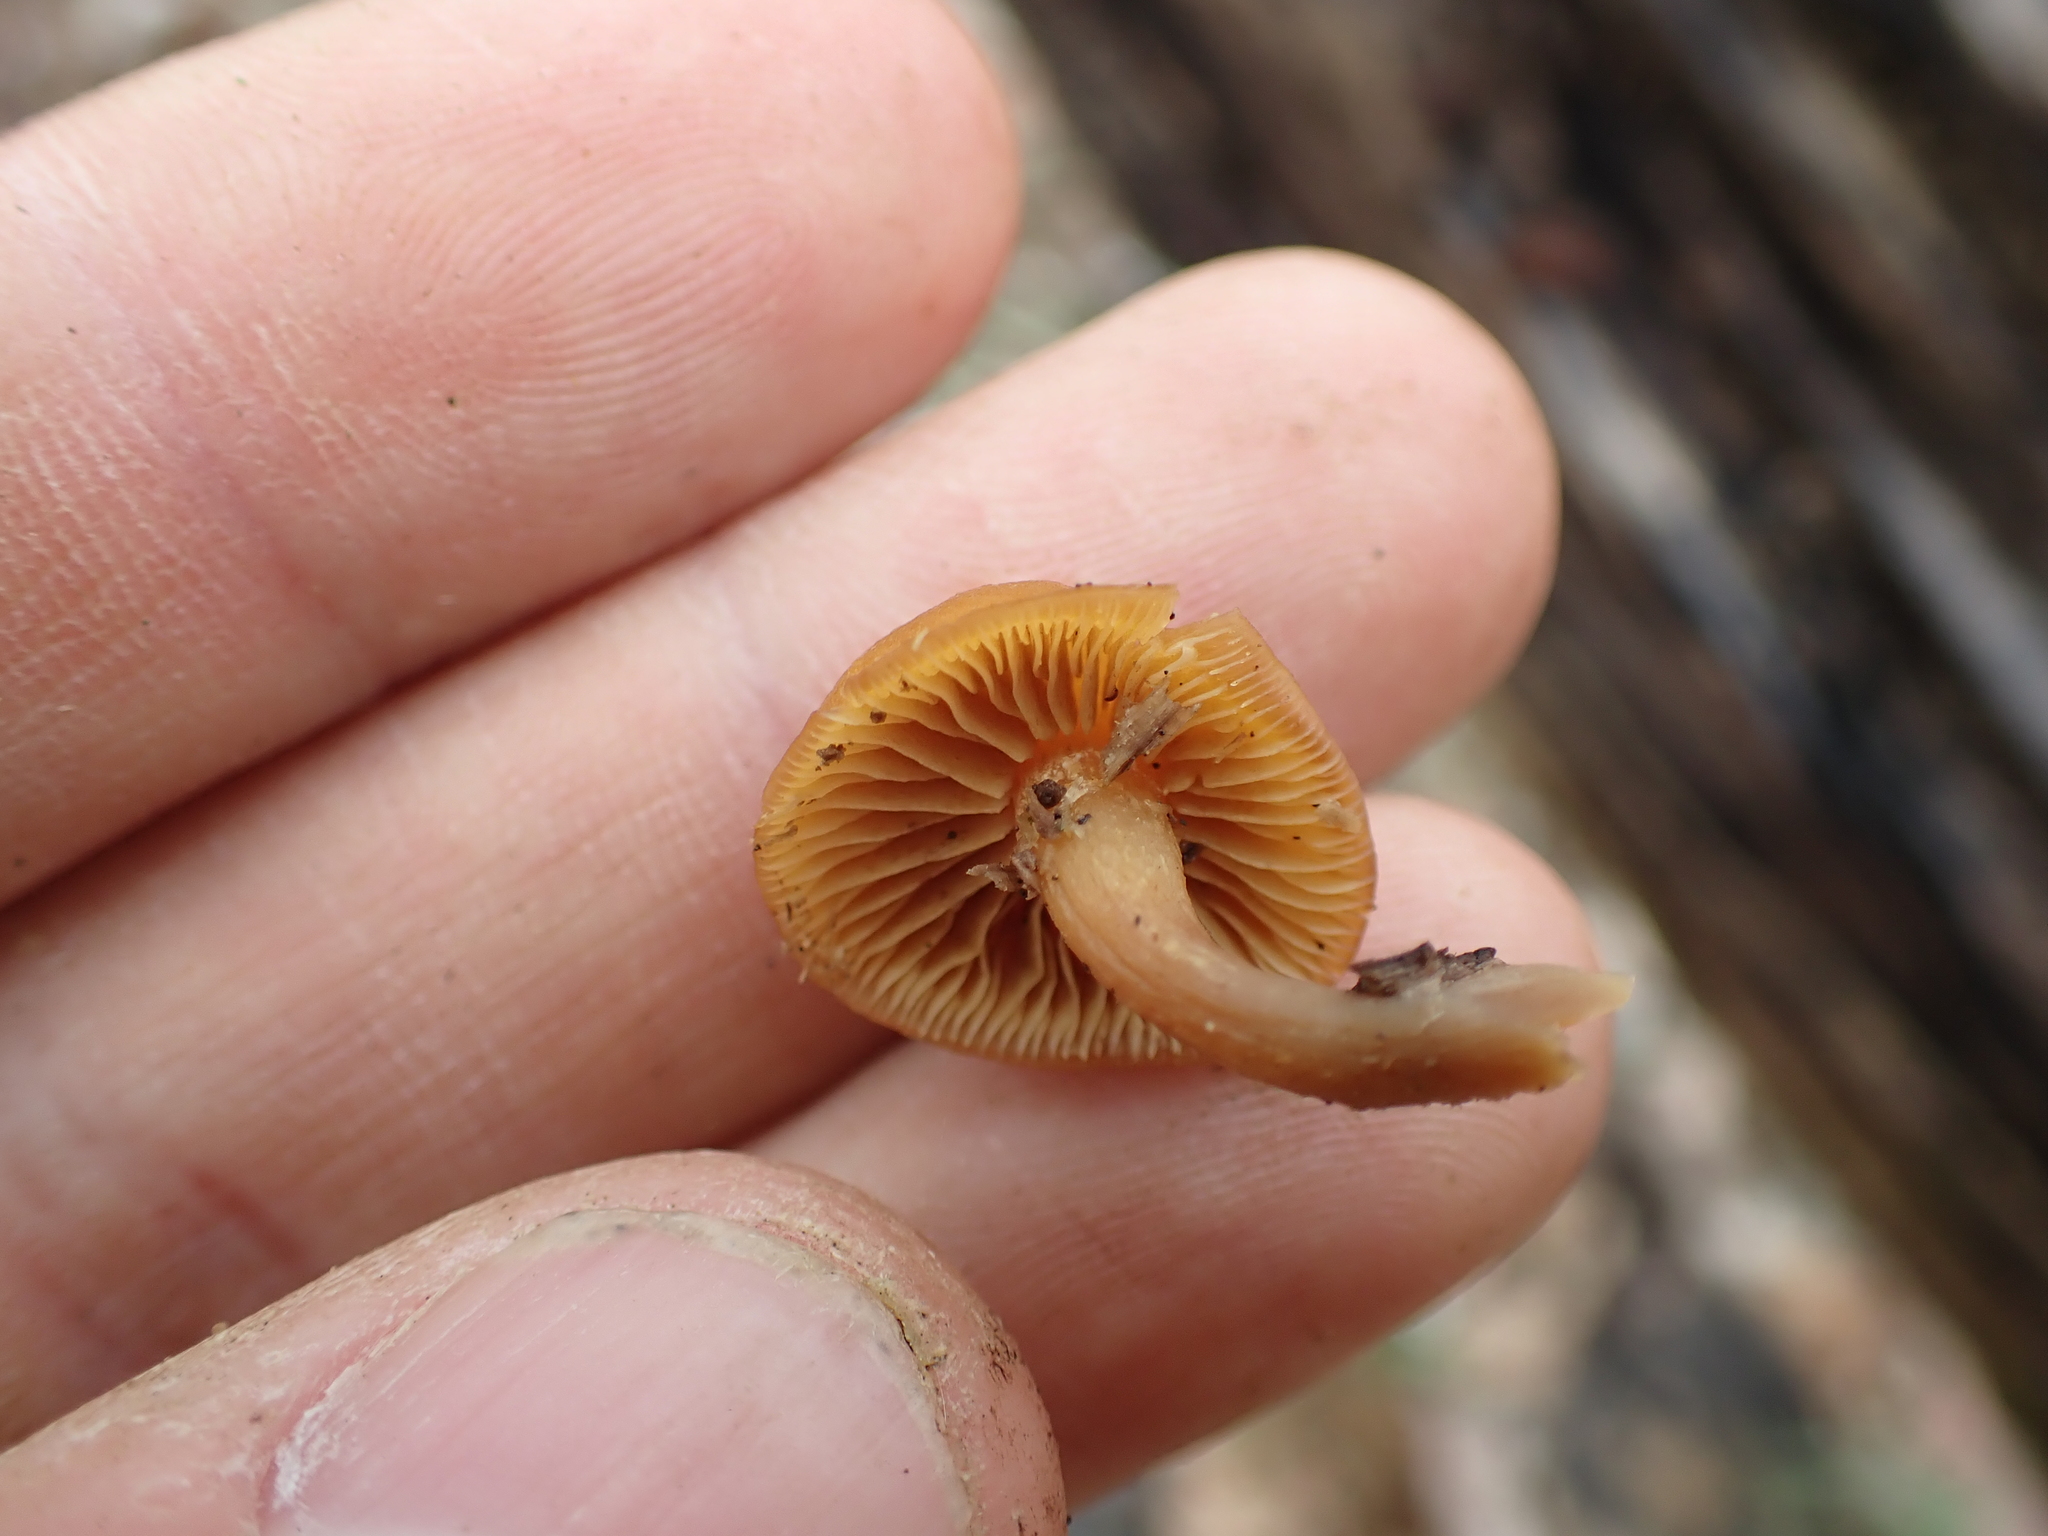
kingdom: Fungi
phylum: Basidiomycota
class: Agaricomycetes
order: Agaricales
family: Hymenogastraceae
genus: Galerina
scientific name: Galerina marginata
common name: Funeral bell
